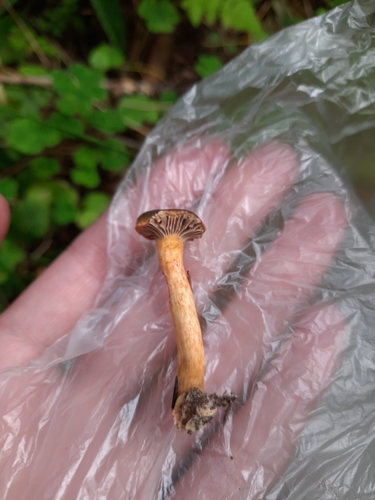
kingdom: Fungi
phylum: Basidiomycota
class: Agaricomycetes
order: Boletales
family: Gomphidiaceae
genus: Chroogomphus
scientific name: Chroogomphus rutilus
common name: Copper spike
